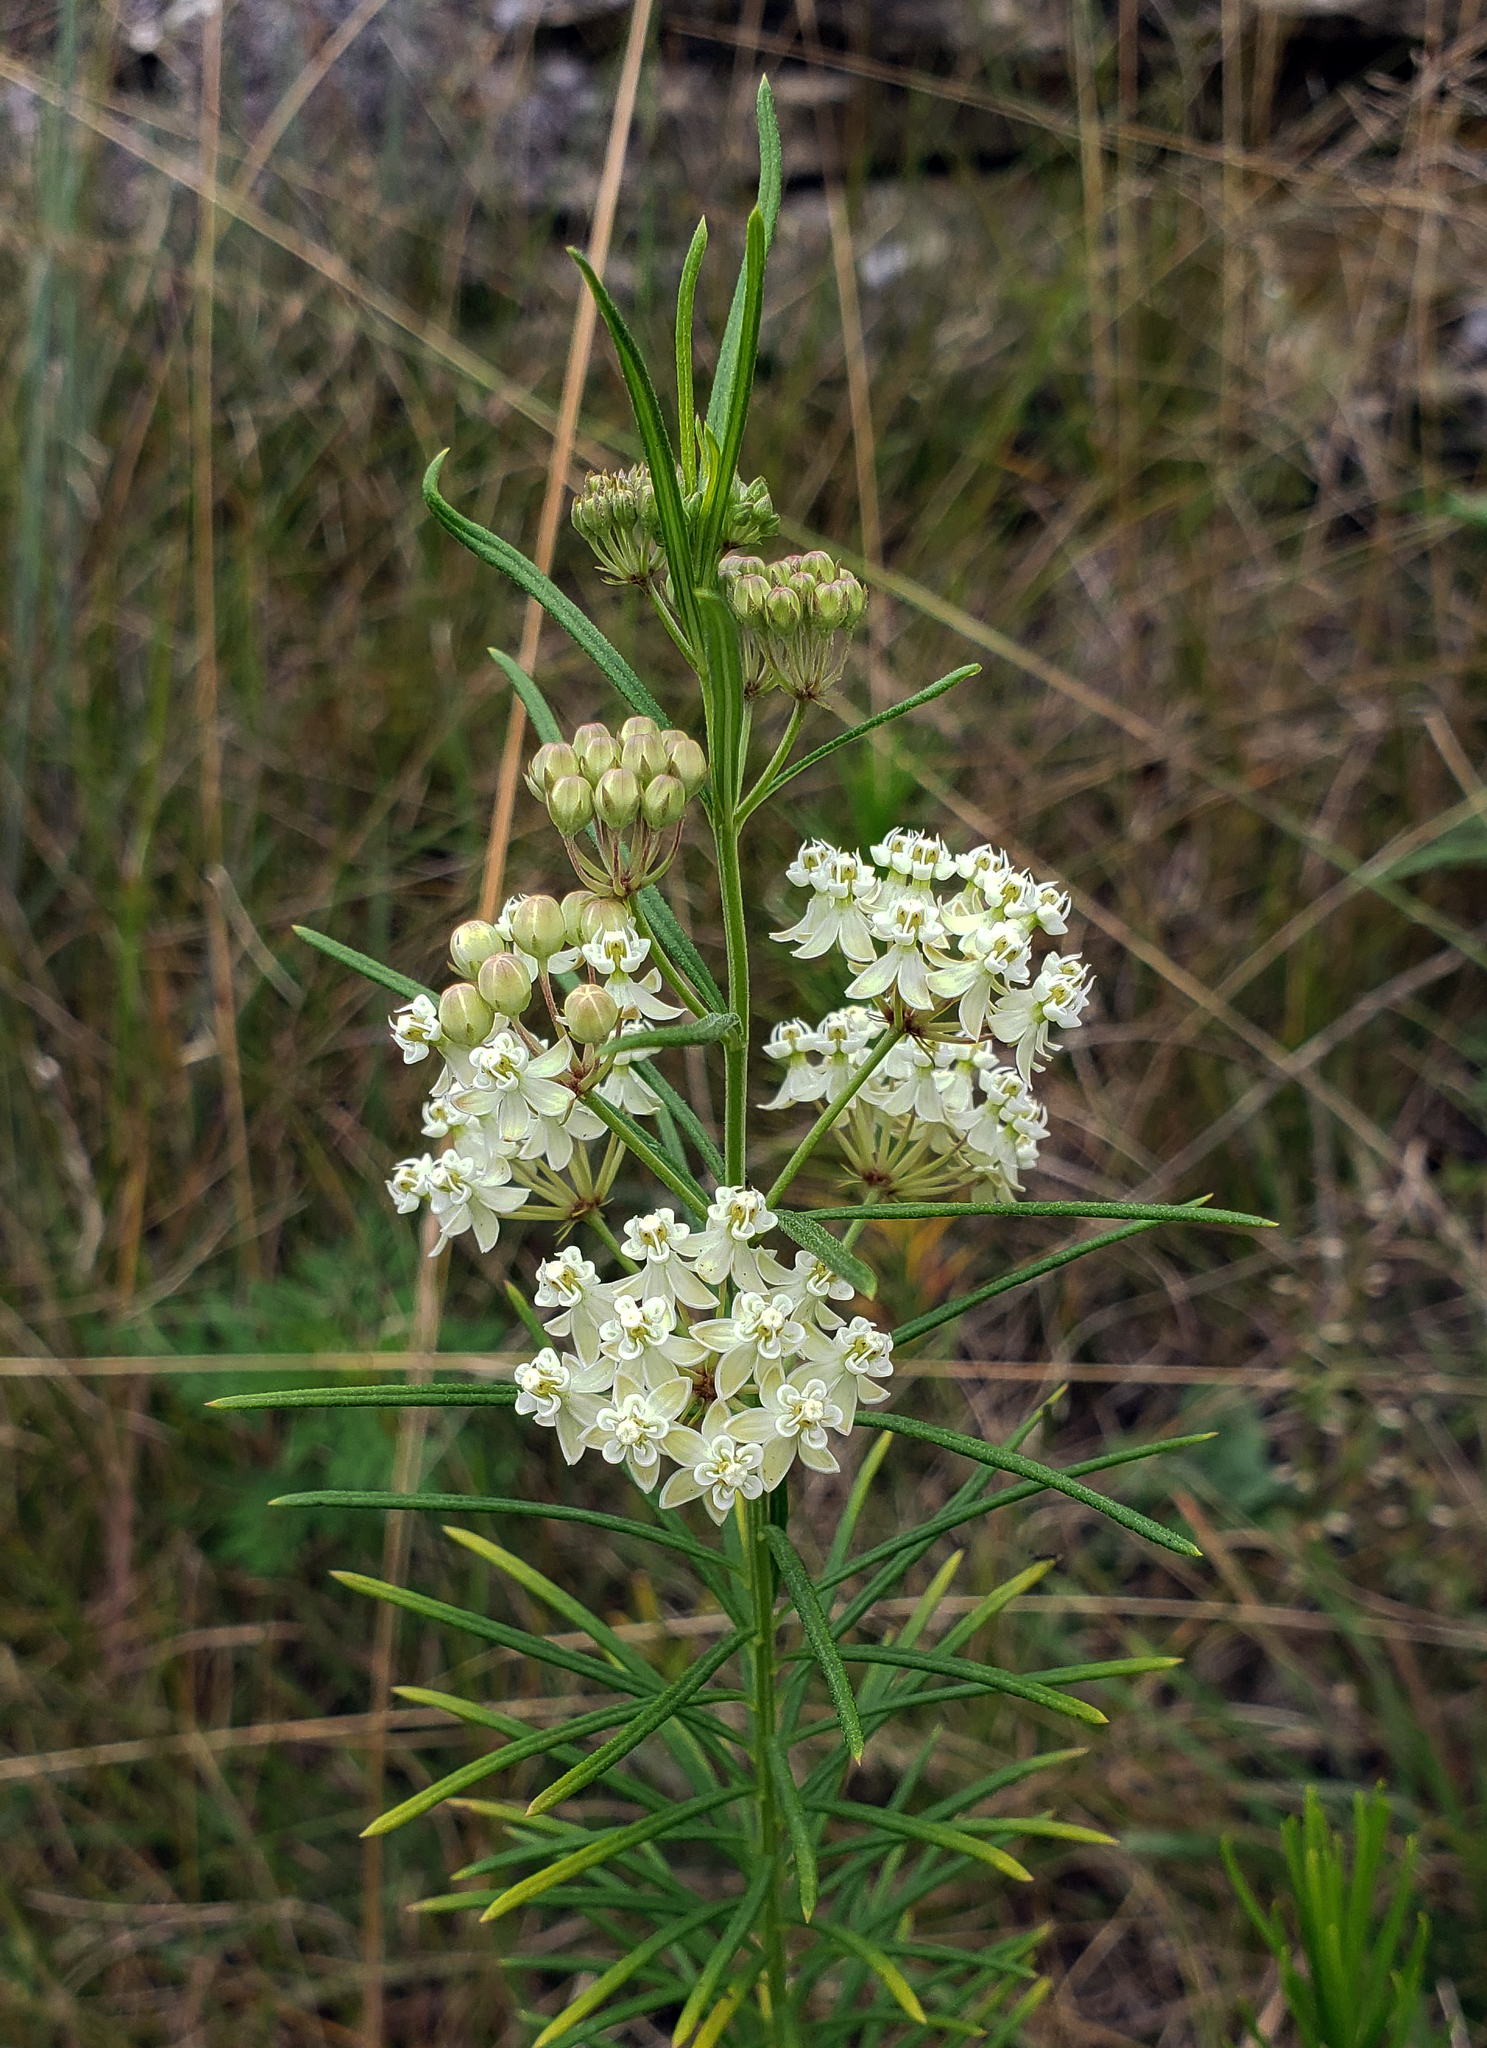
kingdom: Plantae
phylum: Tracheophyta
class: Magnoliopsida
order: Gentianales
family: Apocynaceae
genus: Asclepias
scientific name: Asclepias verticillata
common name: Eastern whorled milkweed
